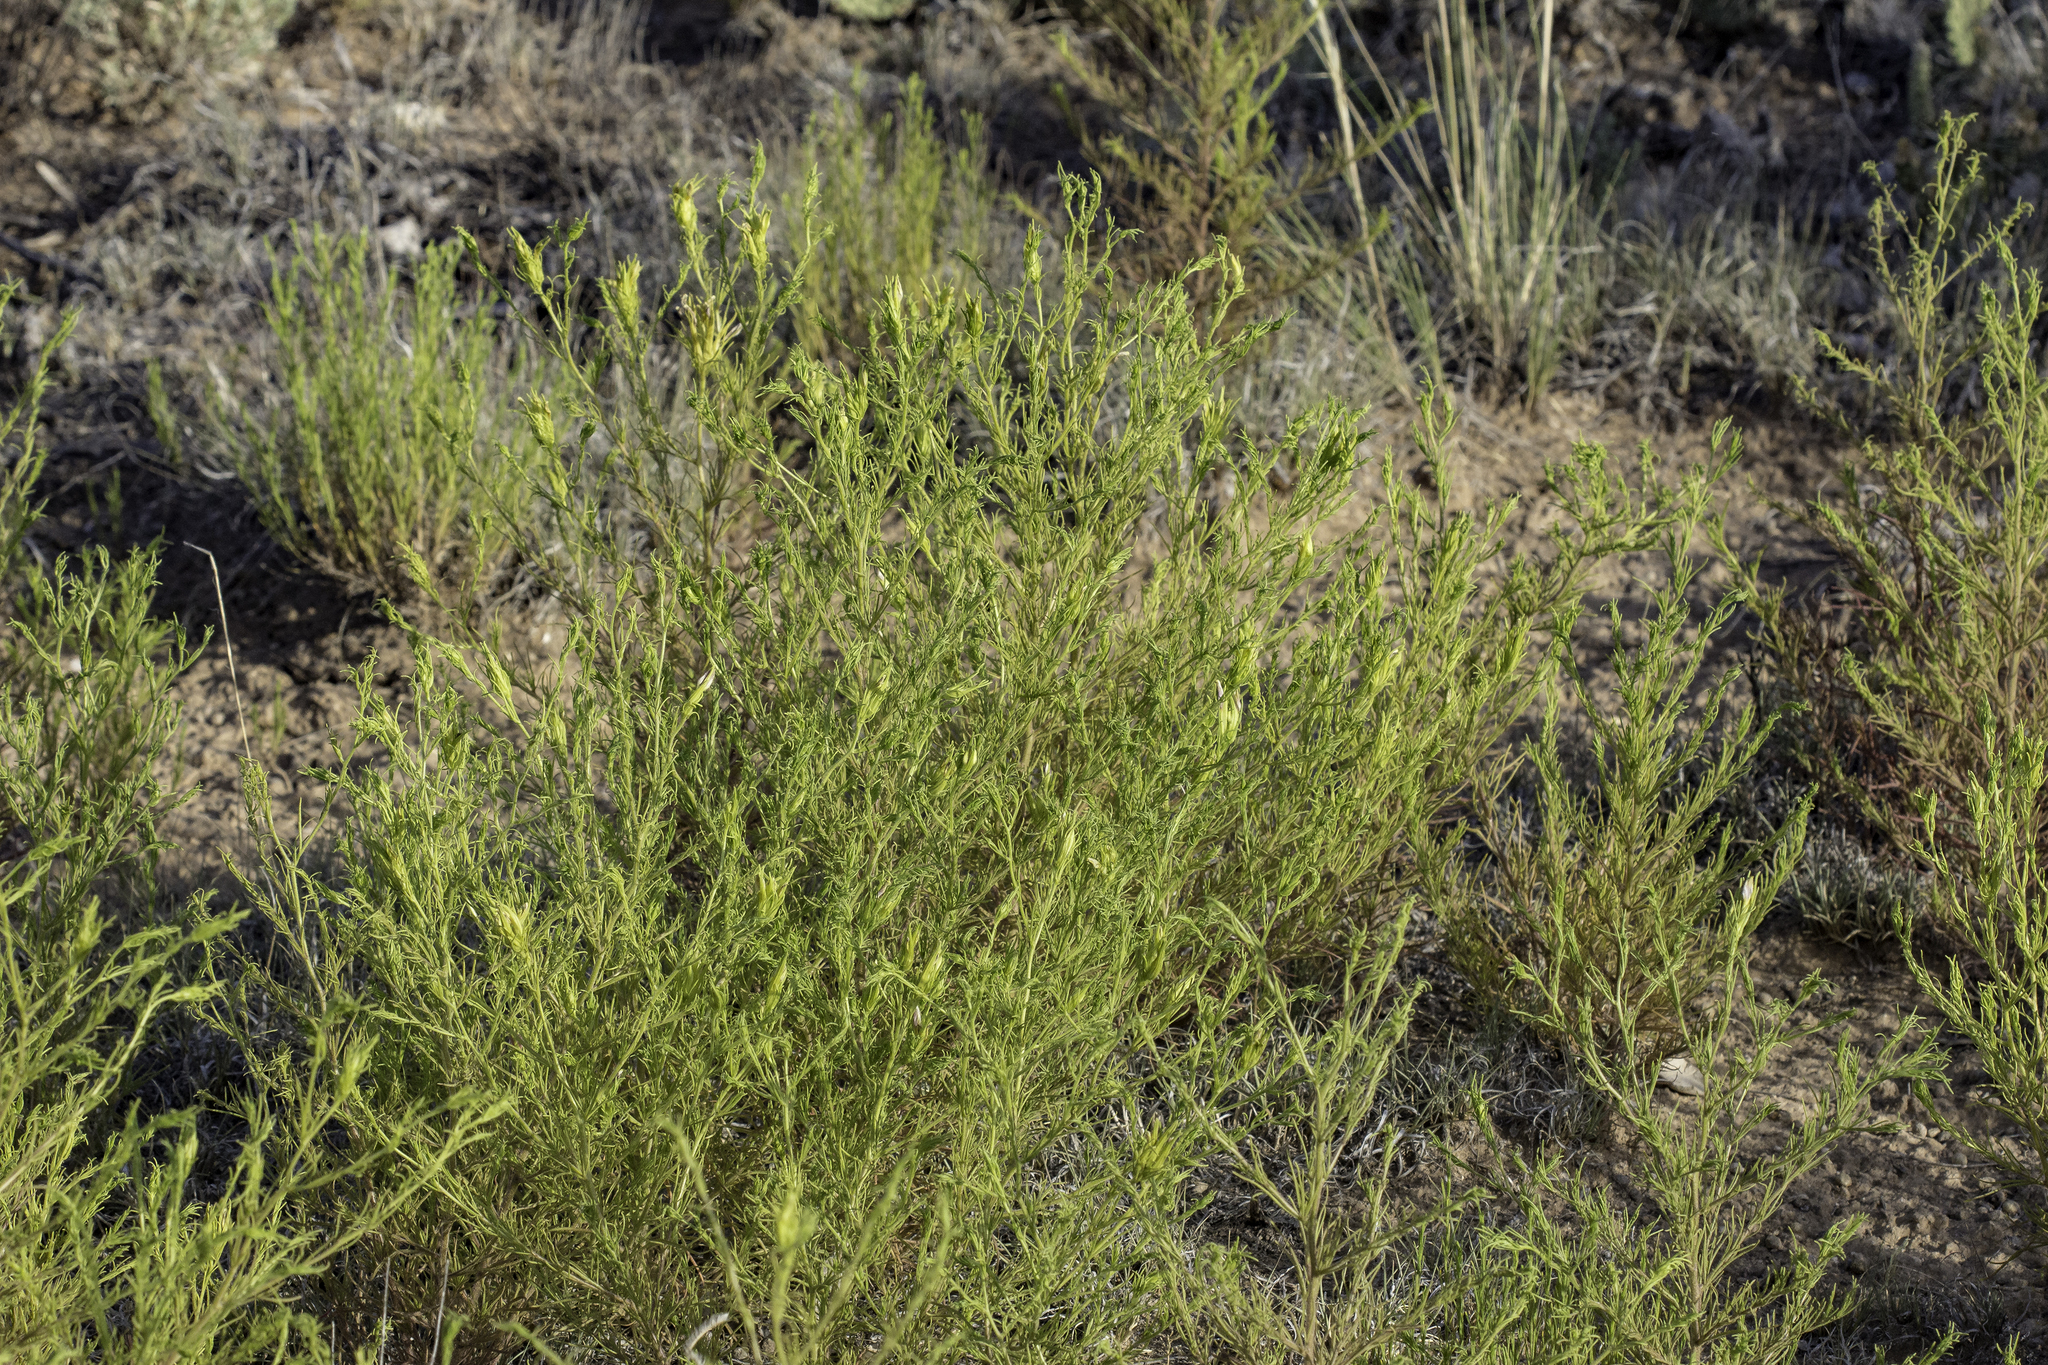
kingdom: Plantae
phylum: Tracheophyta
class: Magnoliopsida
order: Lamiales
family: Orobanchaceae
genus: Cordylanthus
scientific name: Cordylanthus wrightii
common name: Wright's birdsbeak
